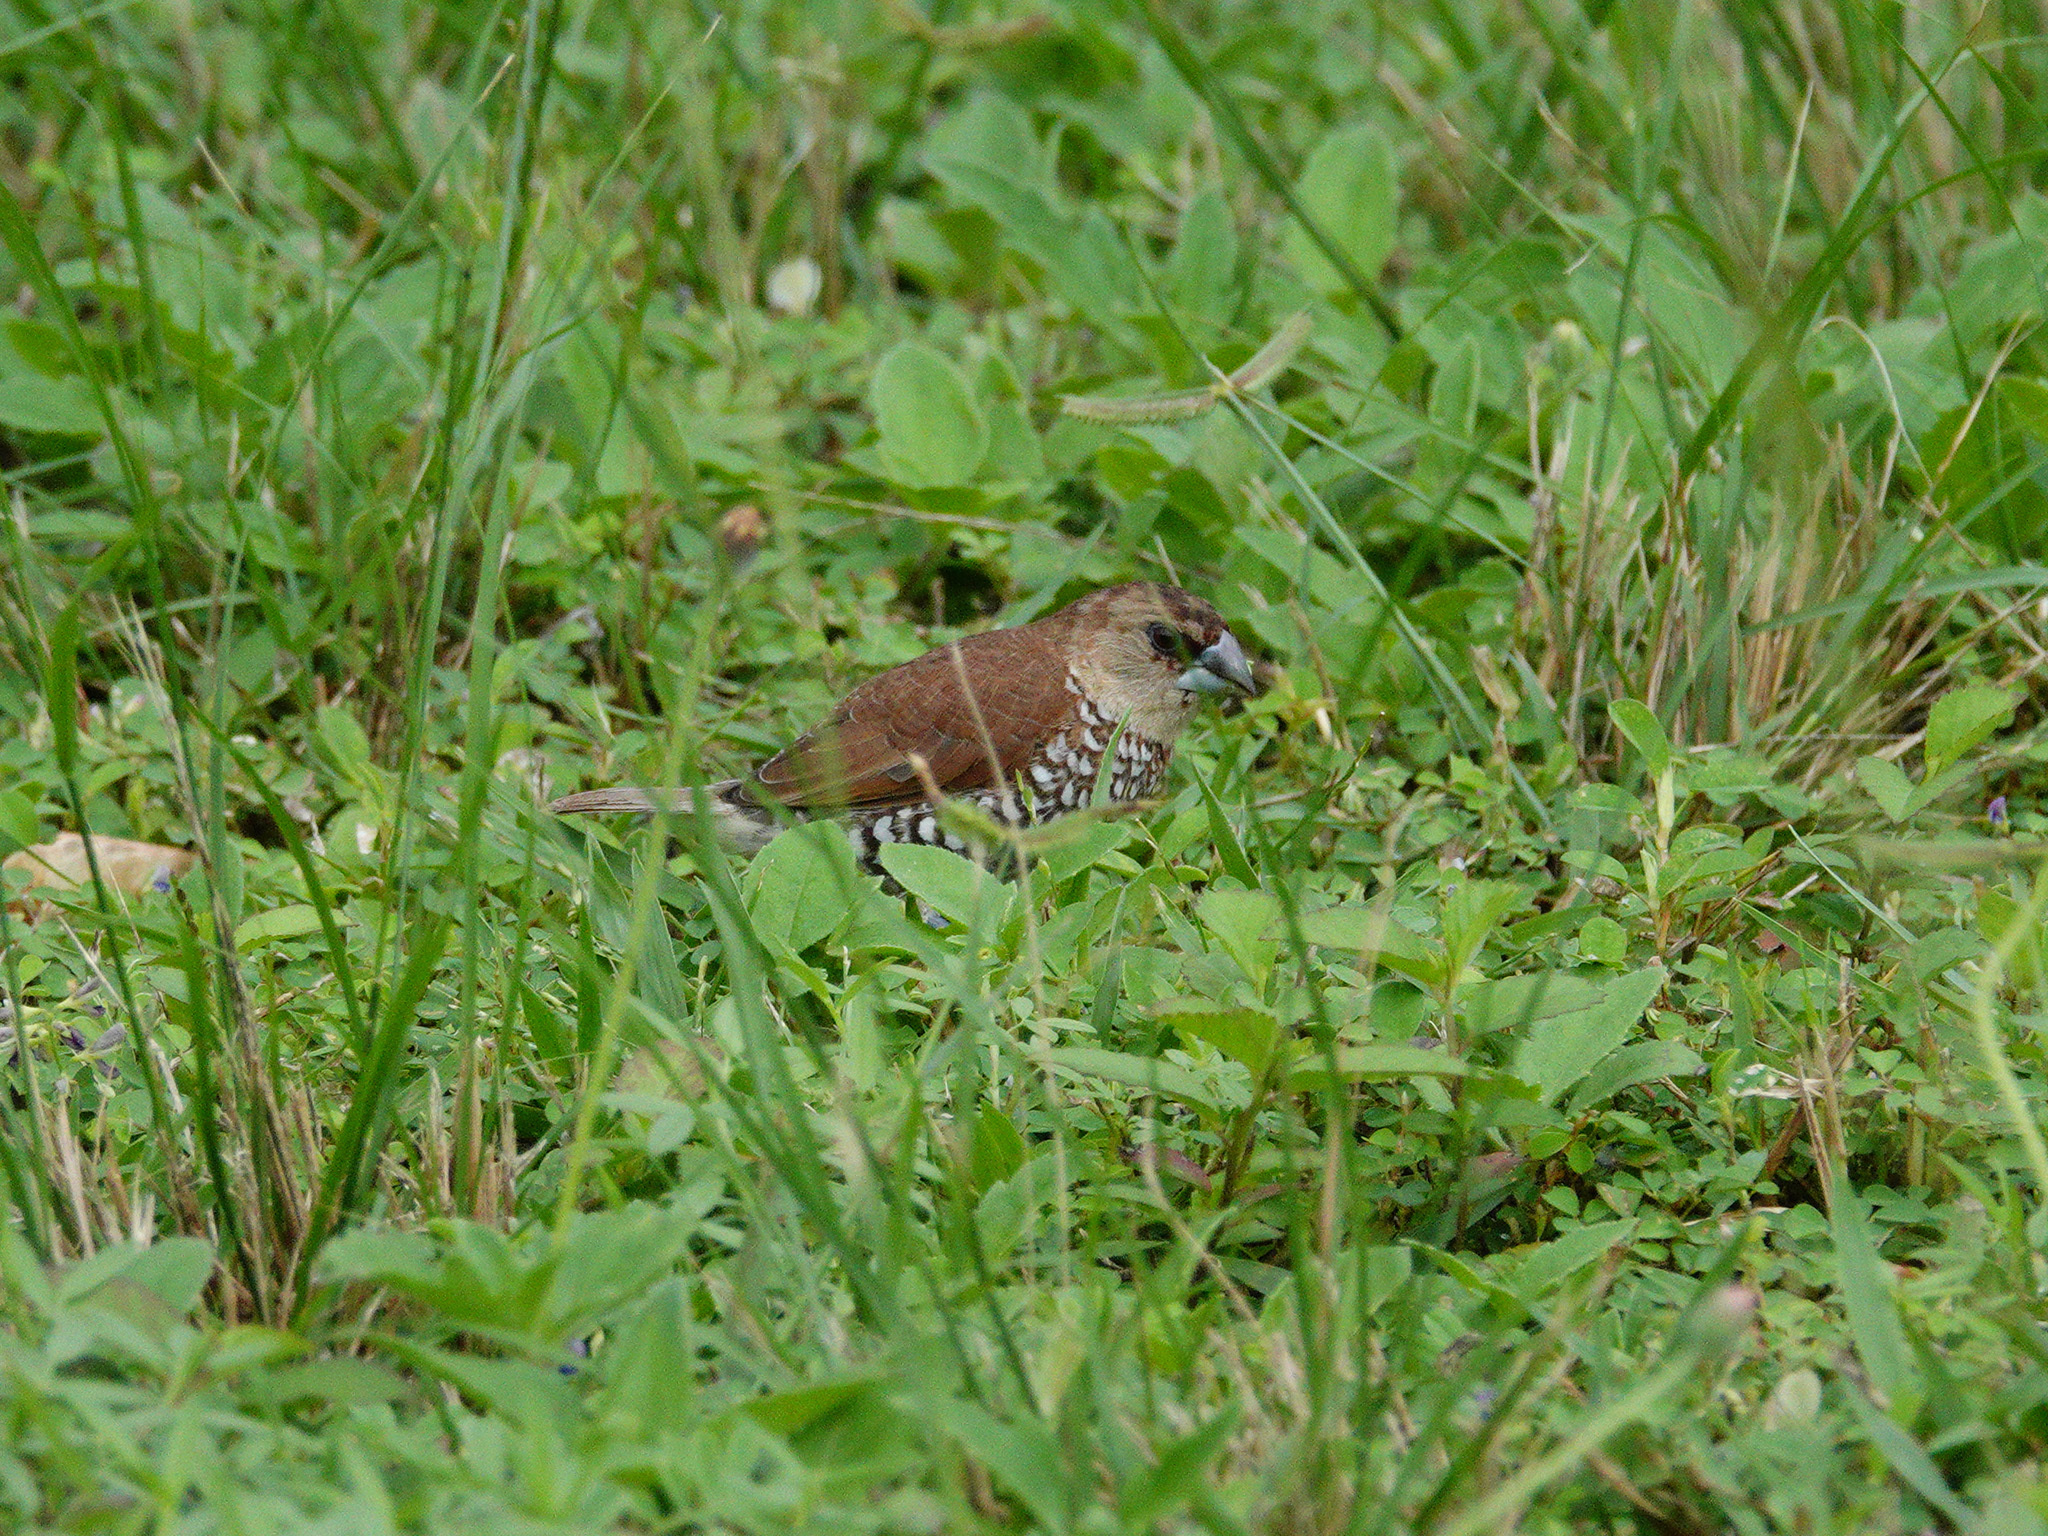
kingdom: Animalia
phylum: Chordata
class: Aves
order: Passeriformes
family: Estrildidae
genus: Lonchura
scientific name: Lonchura punctulata
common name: Scaly-breasted munia
